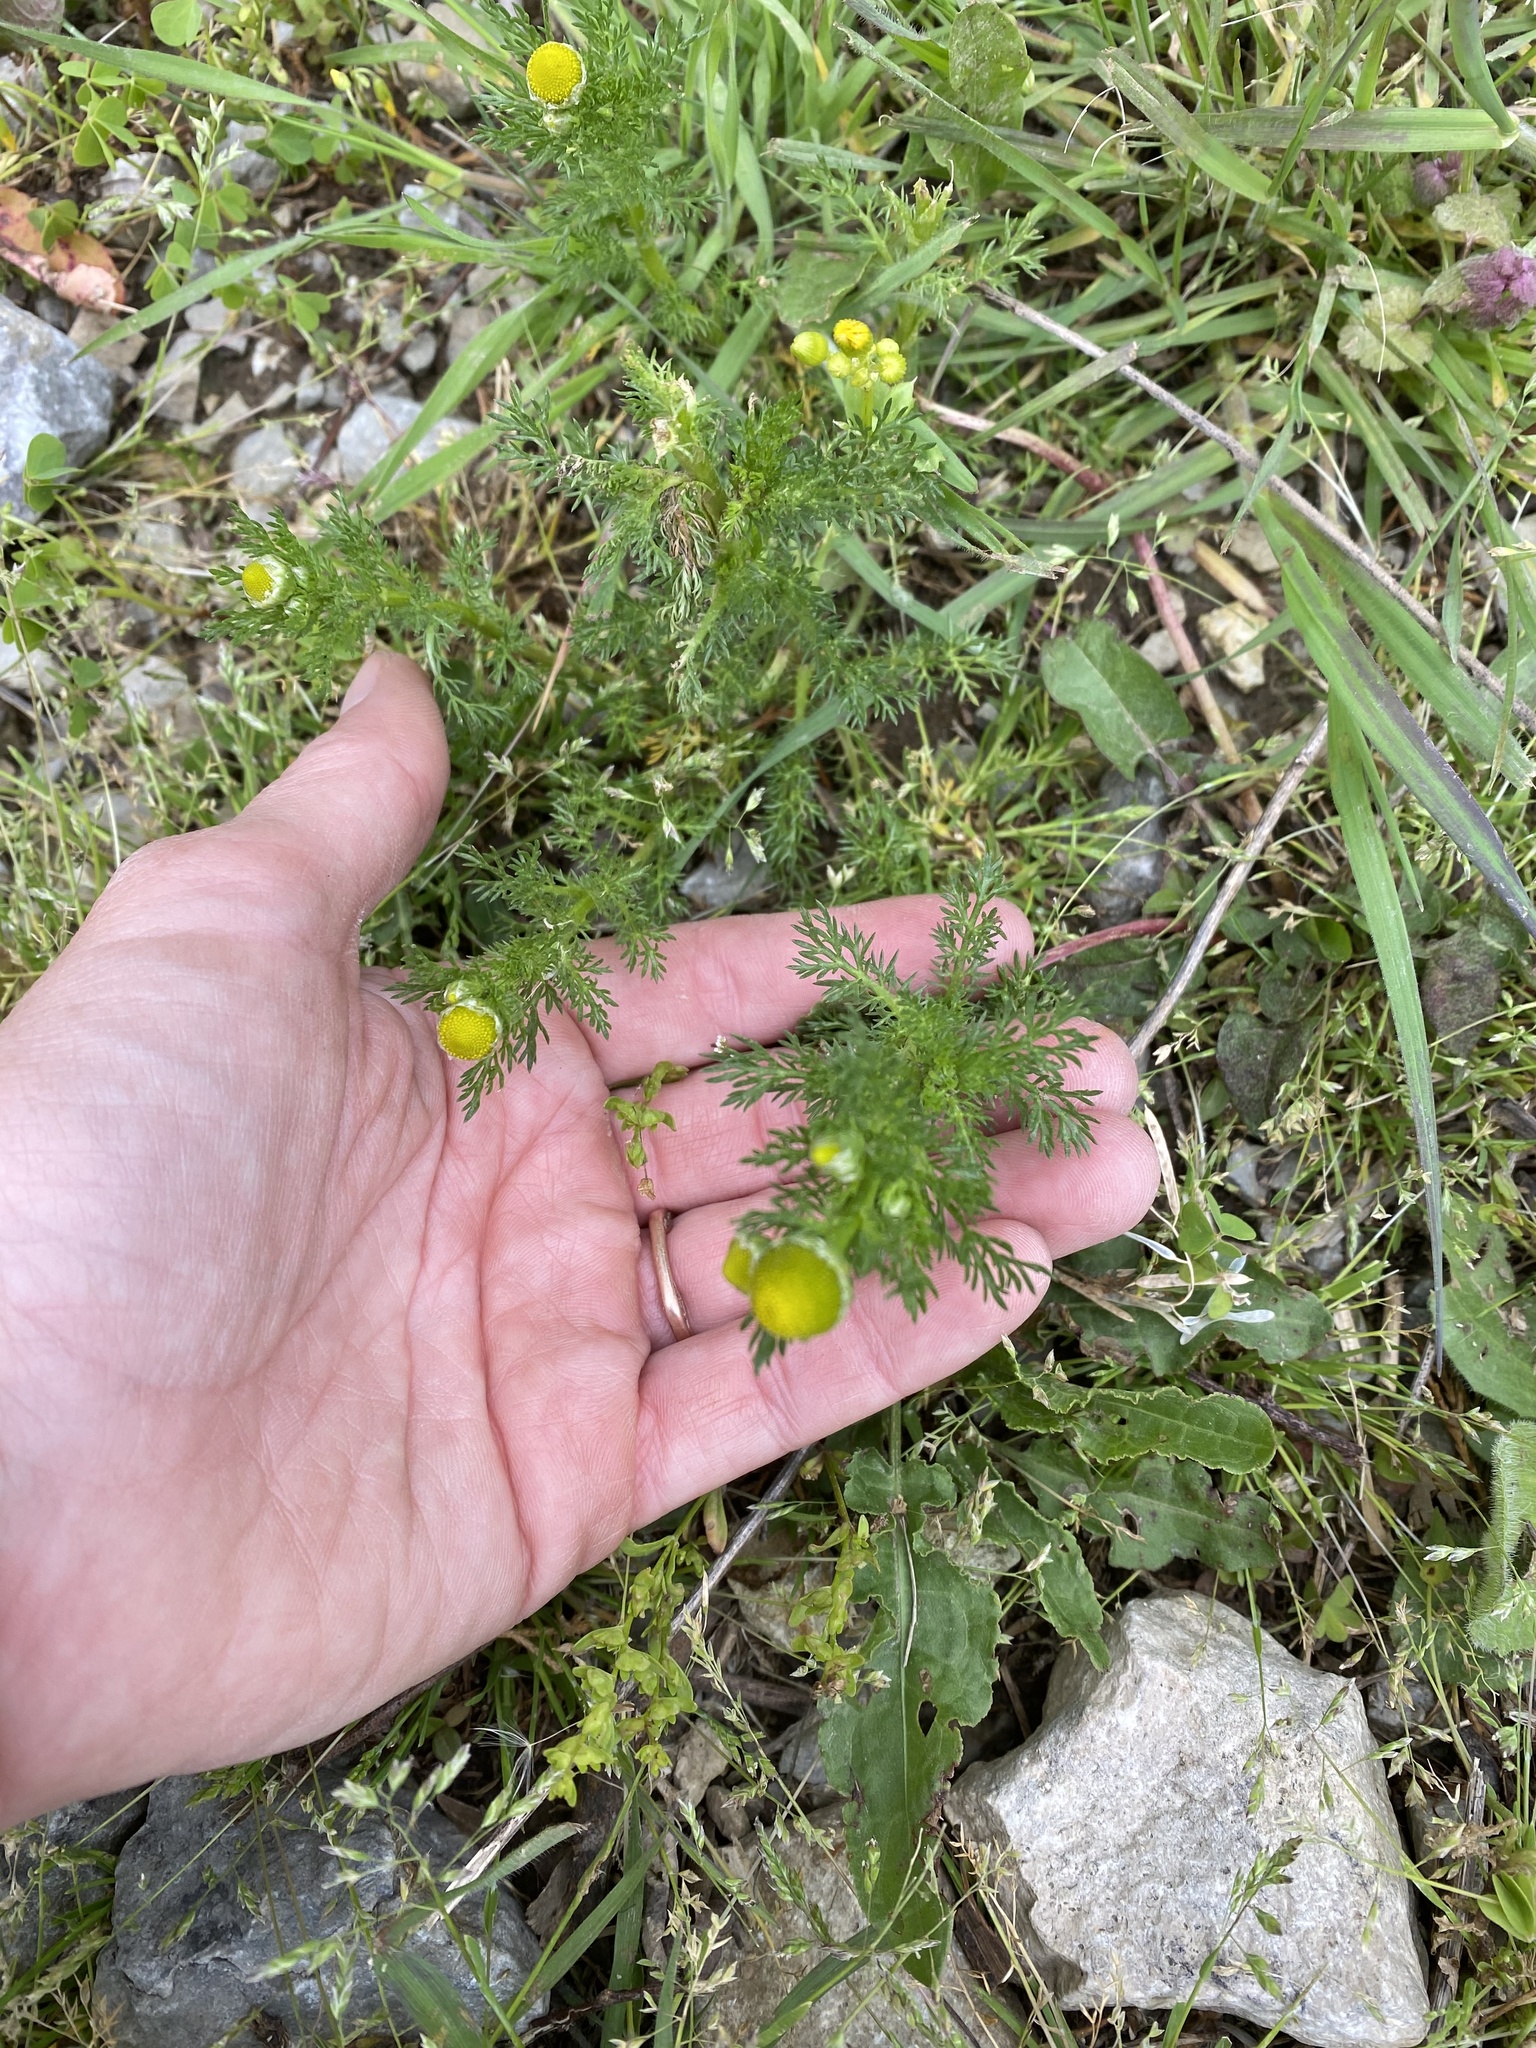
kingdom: Plantae
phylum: Tracheophyta
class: Magnoliopsida
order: Asterales
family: Asteraceae
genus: Matricaria
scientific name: Matricaria discoidea
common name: Disc mayweed
